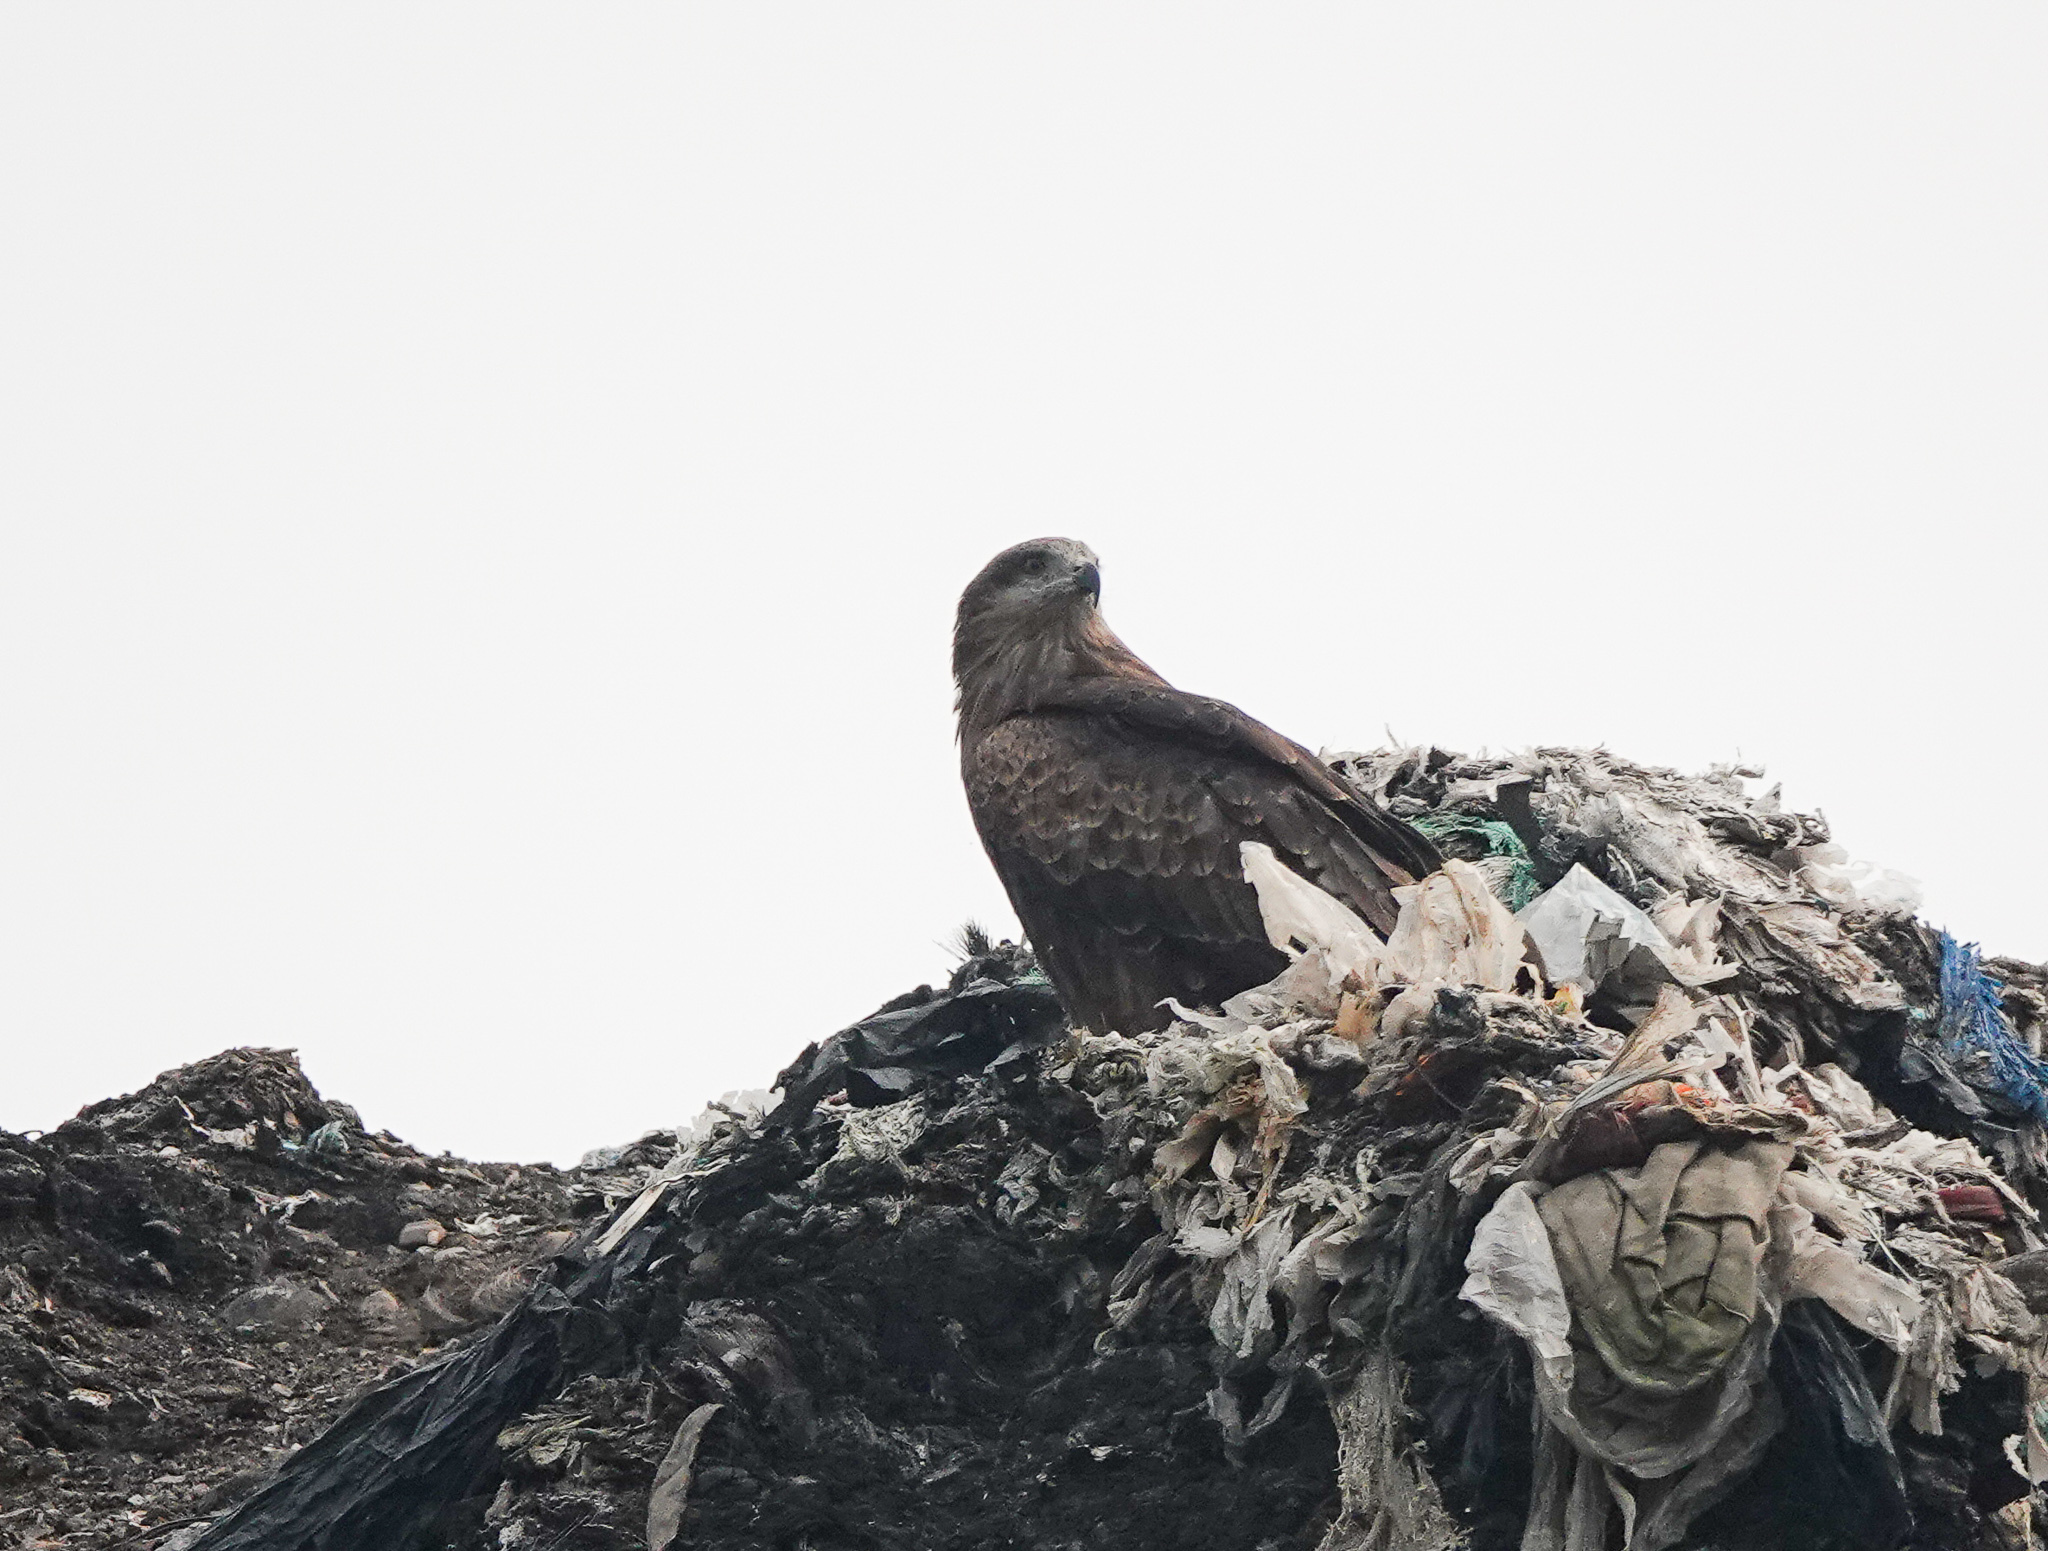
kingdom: Animalia
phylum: Chordata
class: Aves
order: Accipitriformes
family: Accipitridae
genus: Milvus
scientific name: Milvus migrans
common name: Black kite
